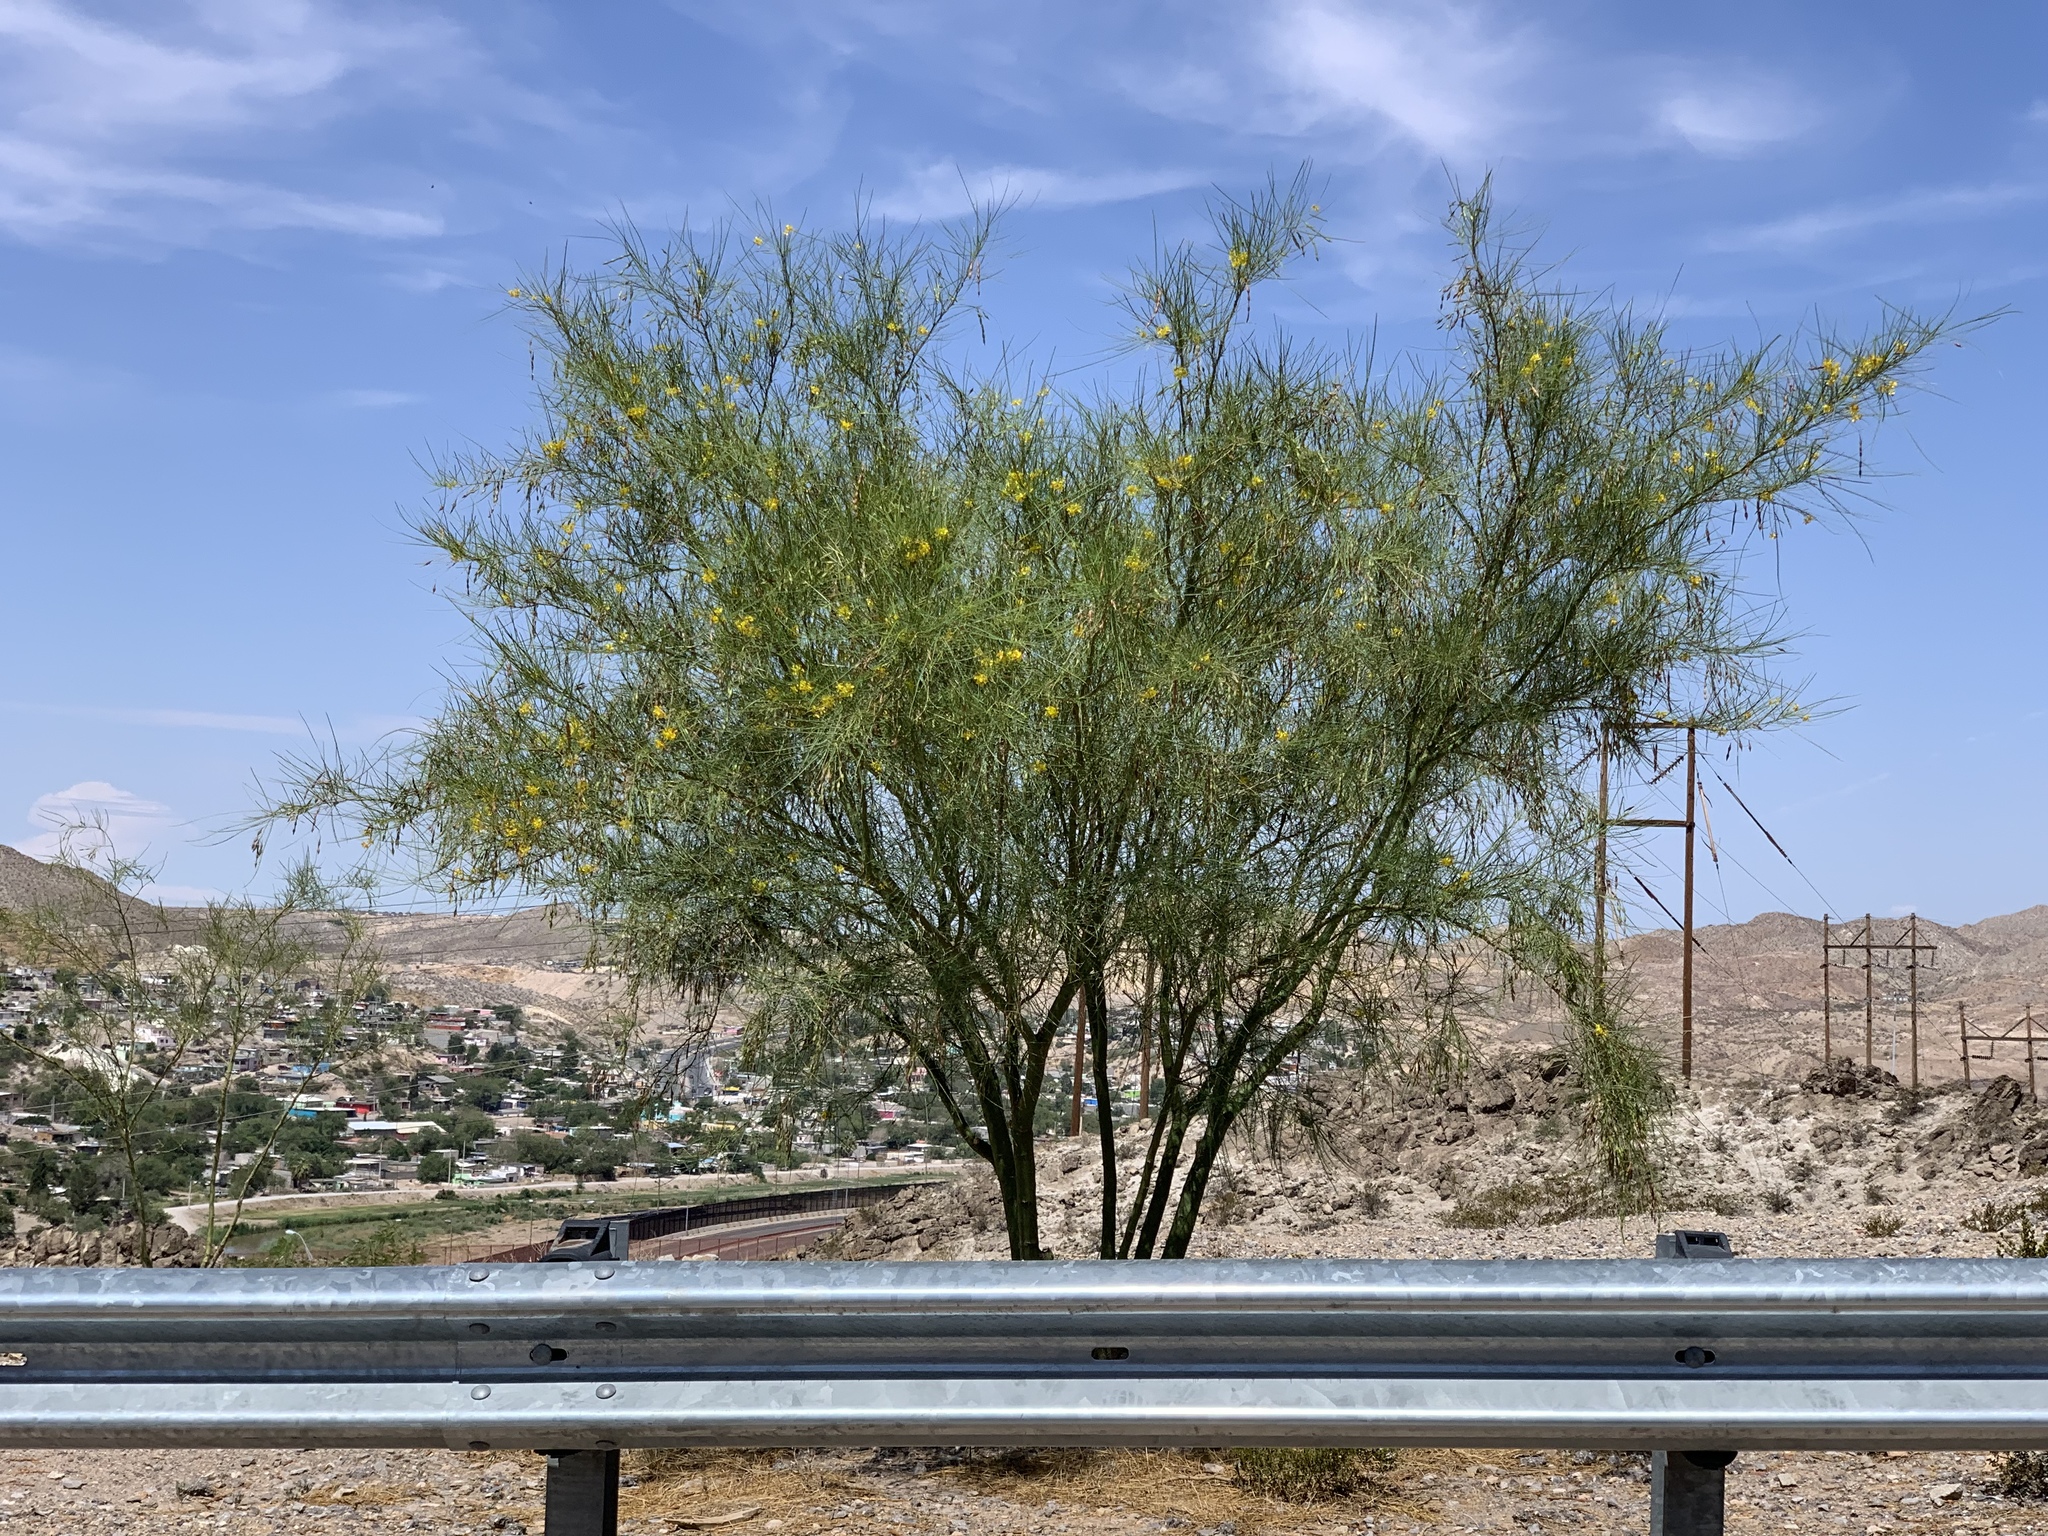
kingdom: Plantae
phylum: Tracheophyta
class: Magnoliopsida
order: Fabales
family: Fabaceae
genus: Parkinsonia
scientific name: Parkinsonia aculeata
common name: Jerusalem thorn
